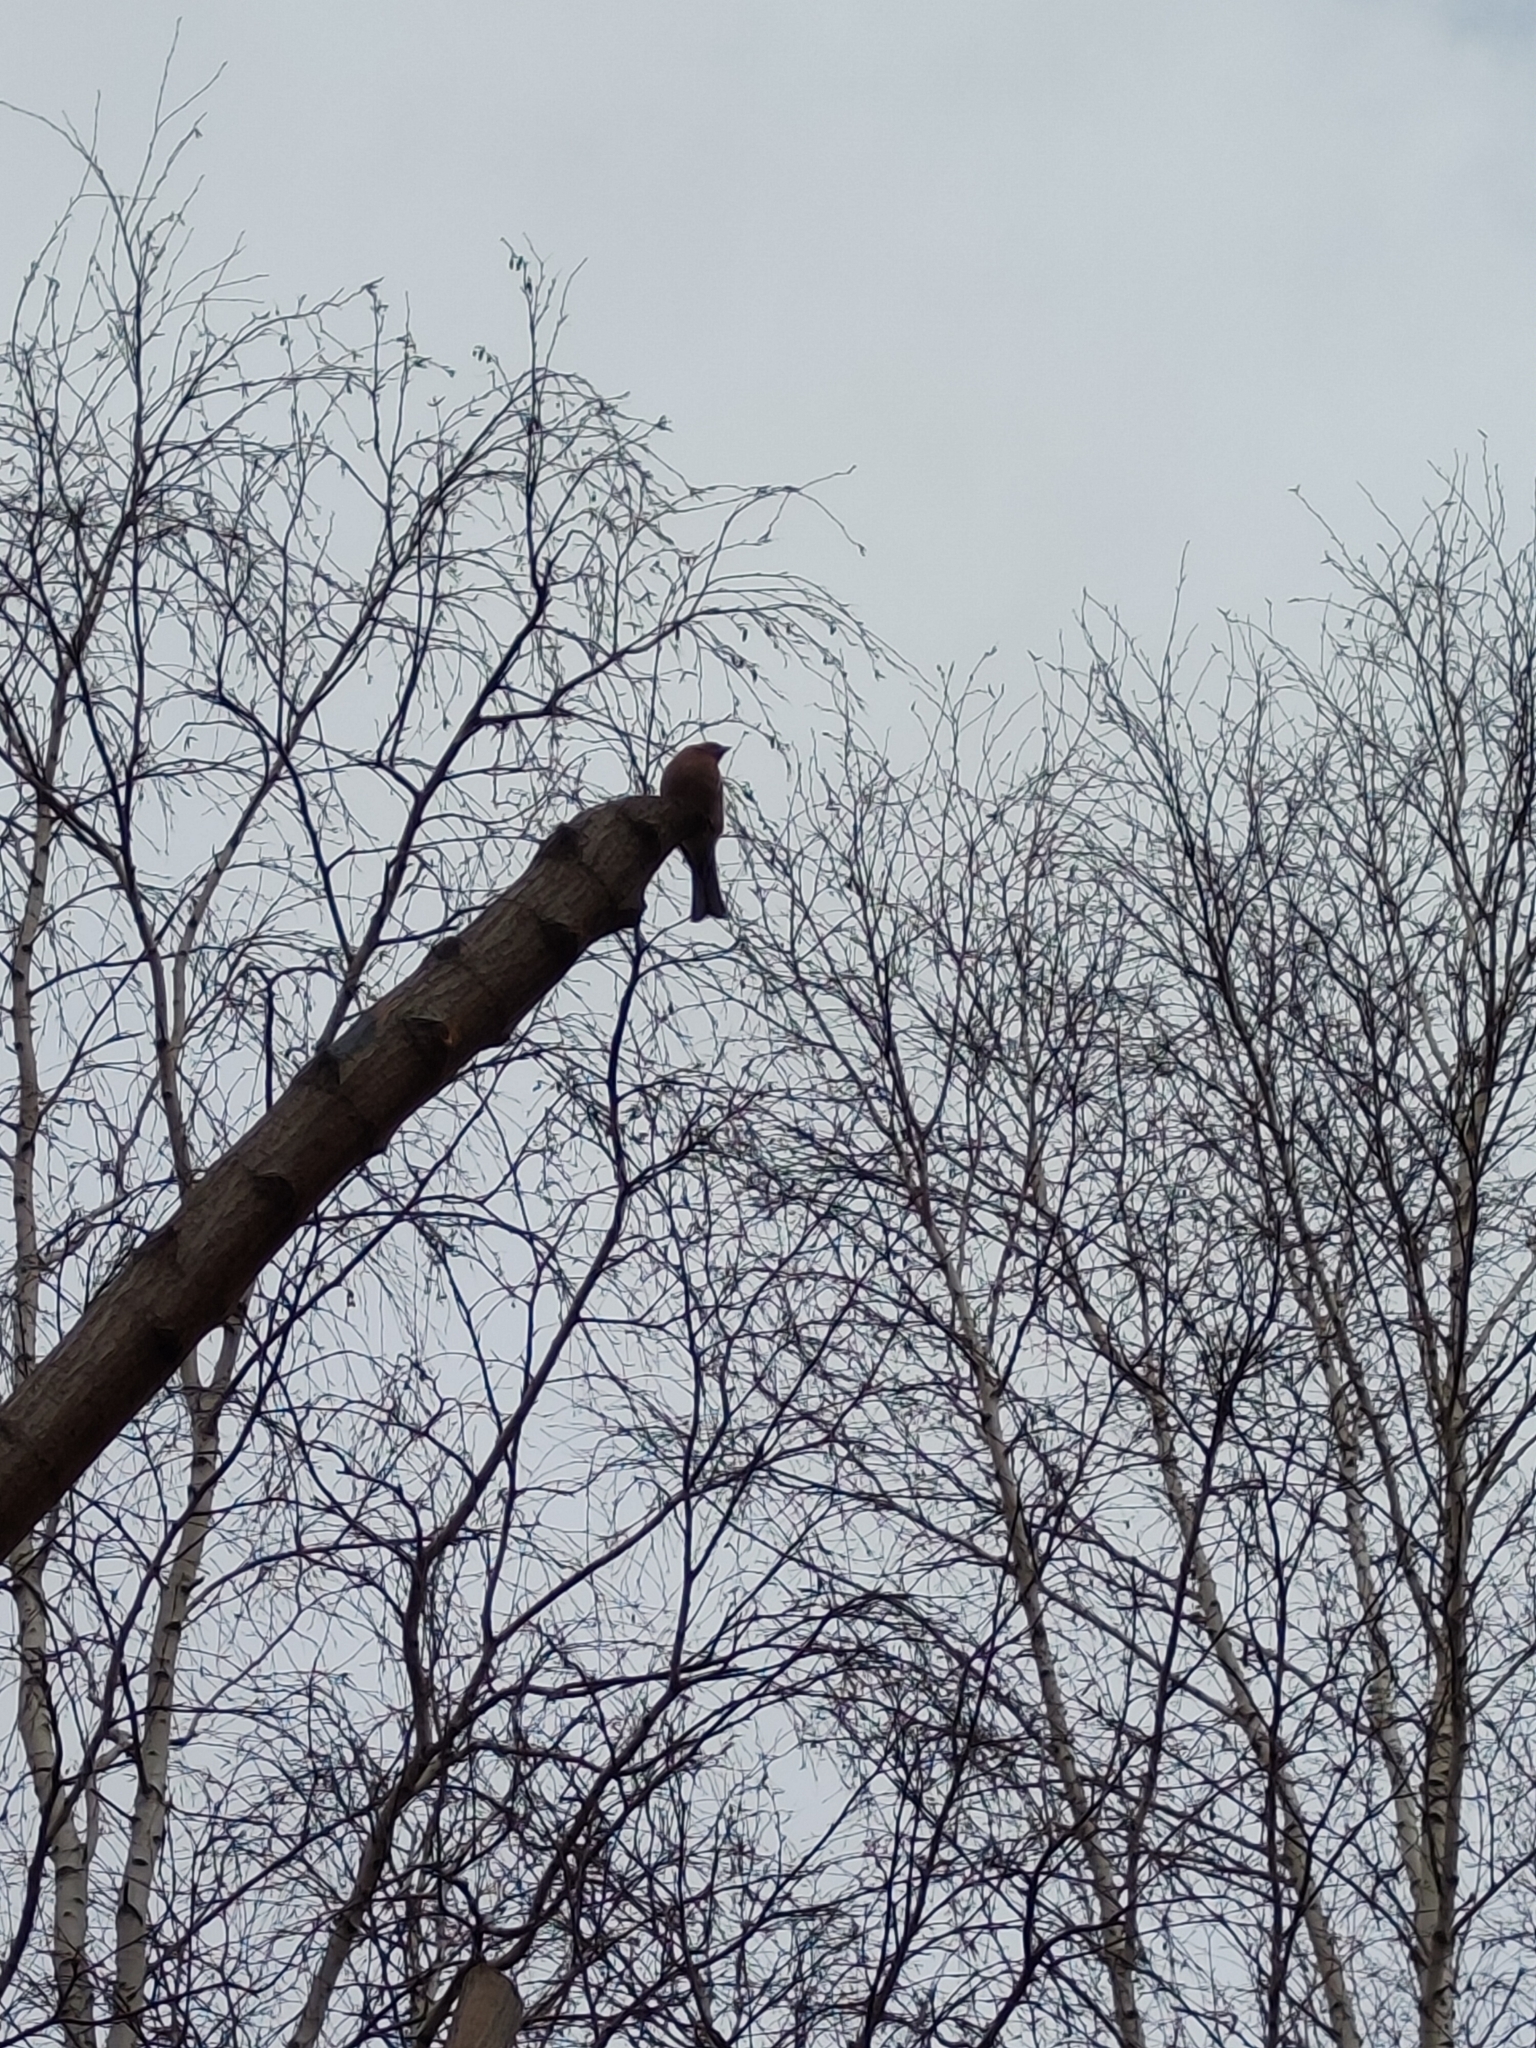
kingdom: Animalia
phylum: Chordata
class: Aves
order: Passeriformes
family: Fringillidae
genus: Fringilla
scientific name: Fringilla coelebs
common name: Common chaffinch
